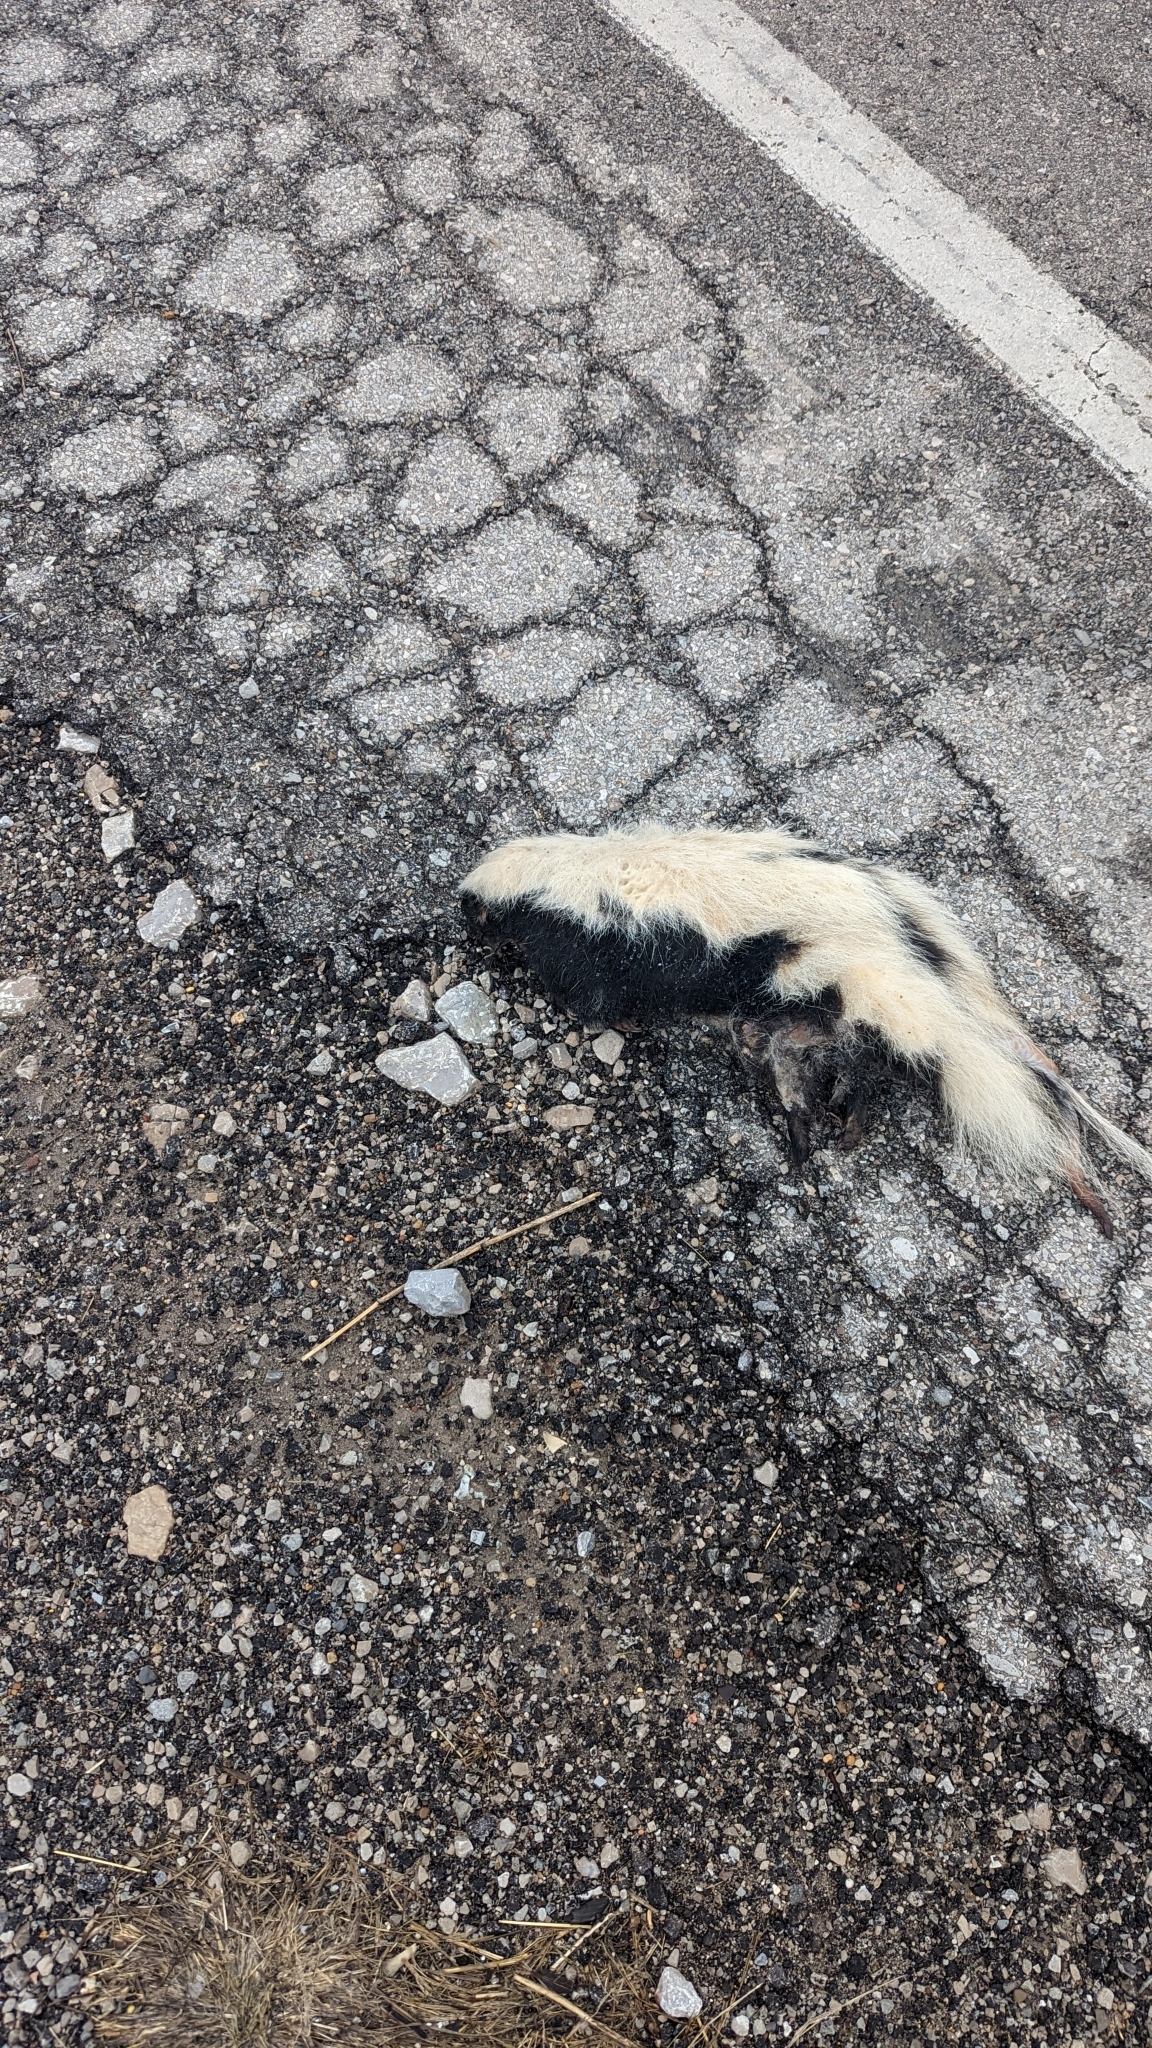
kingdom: Animalia
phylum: Chordata
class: Mammalia
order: Carnivora
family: Mephitidae
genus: Mephitis
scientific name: Mephitis mephitis
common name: Striped skunk
